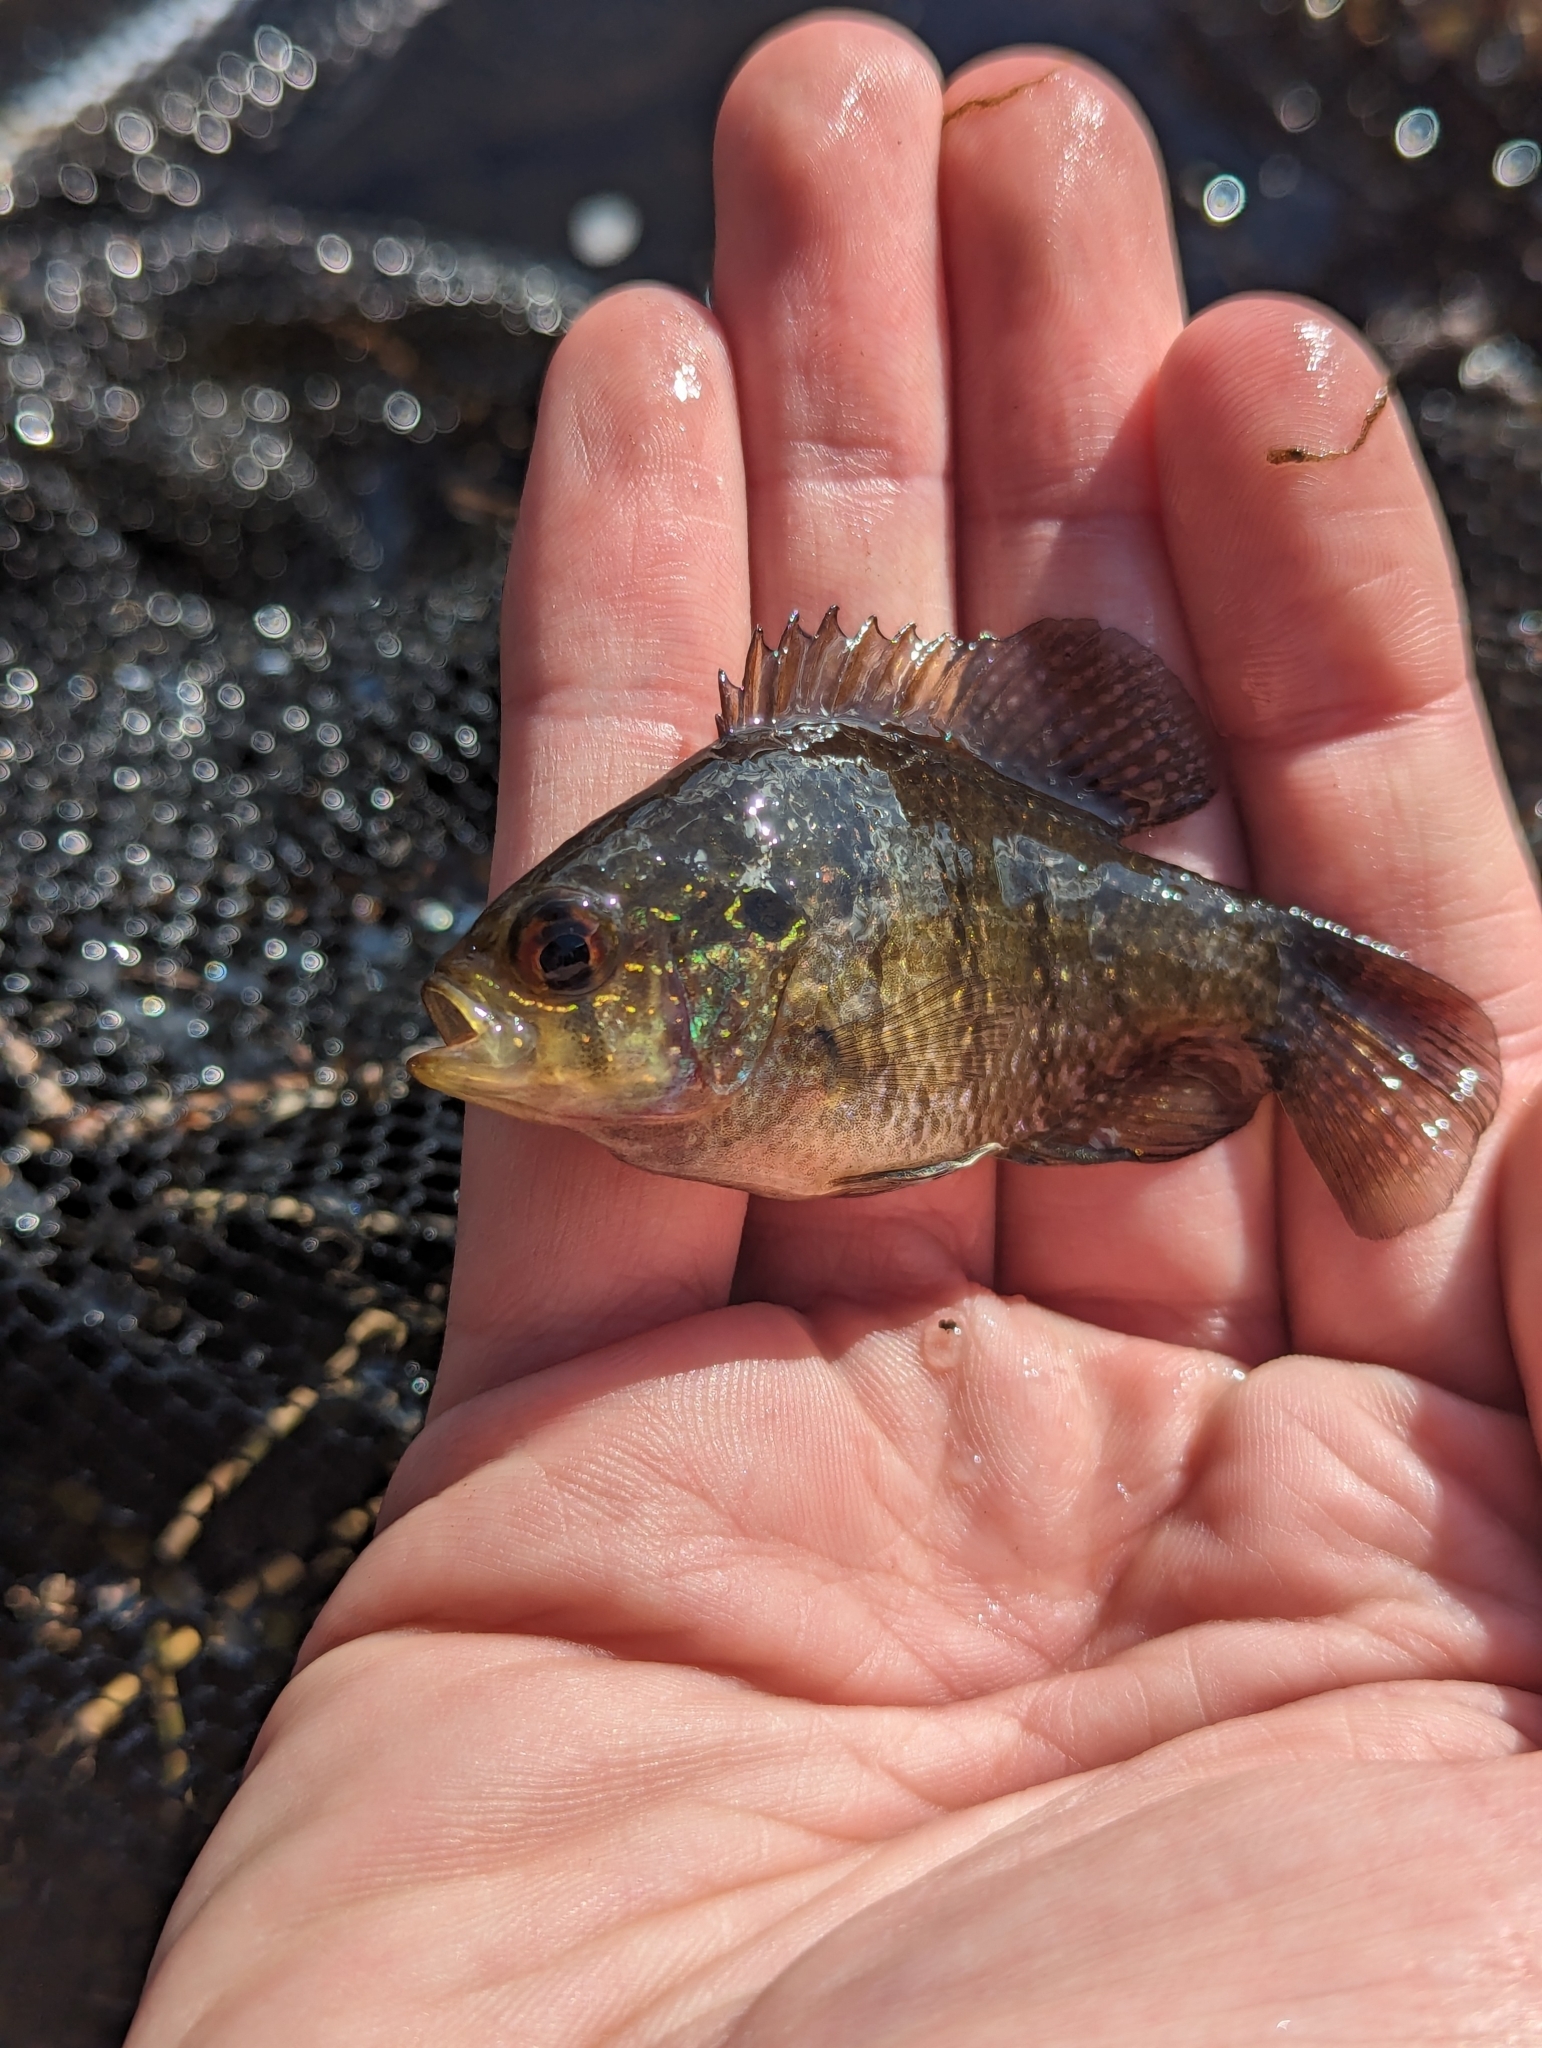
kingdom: Animalia
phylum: Chordata
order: Perciformes
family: Centrarchidae
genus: Enneacanthus
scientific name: Enneacanthus obesus
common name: Banded sunfish
